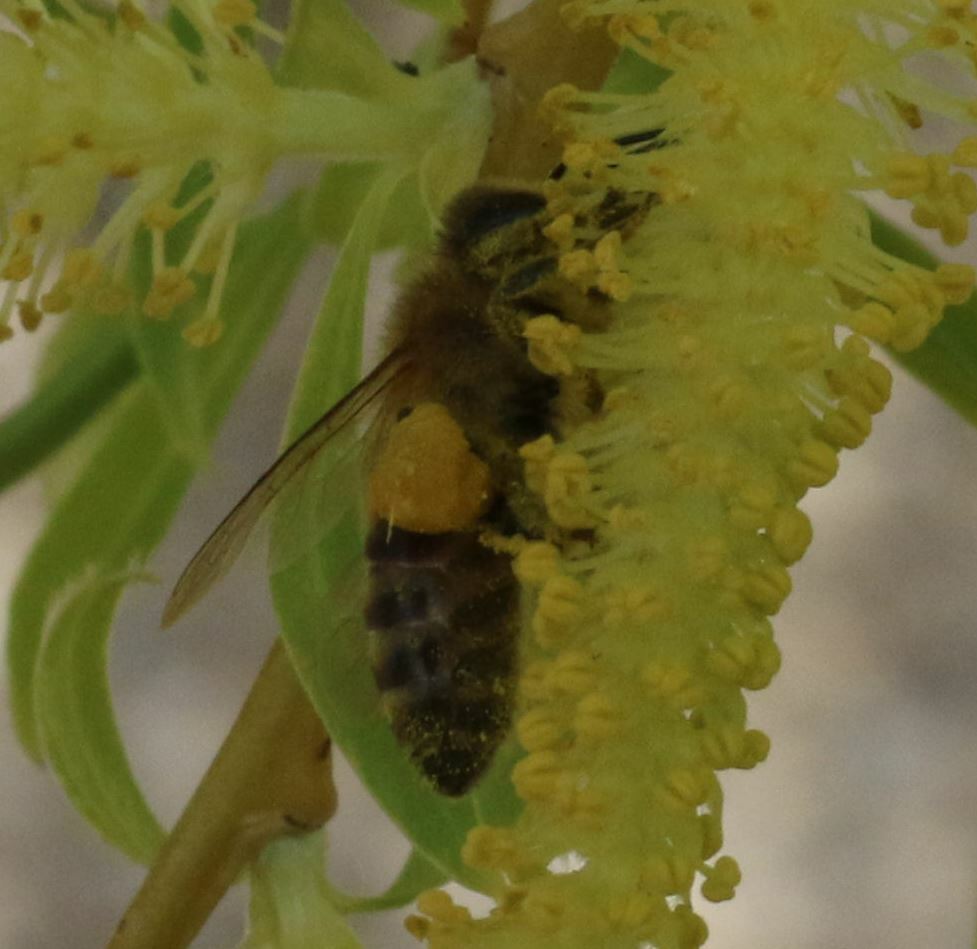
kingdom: Animalia
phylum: Arthropoda
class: Insecta
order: Hymenoptera
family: Apidae
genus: Apis
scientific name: Apis mellifera
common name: Honey bee
